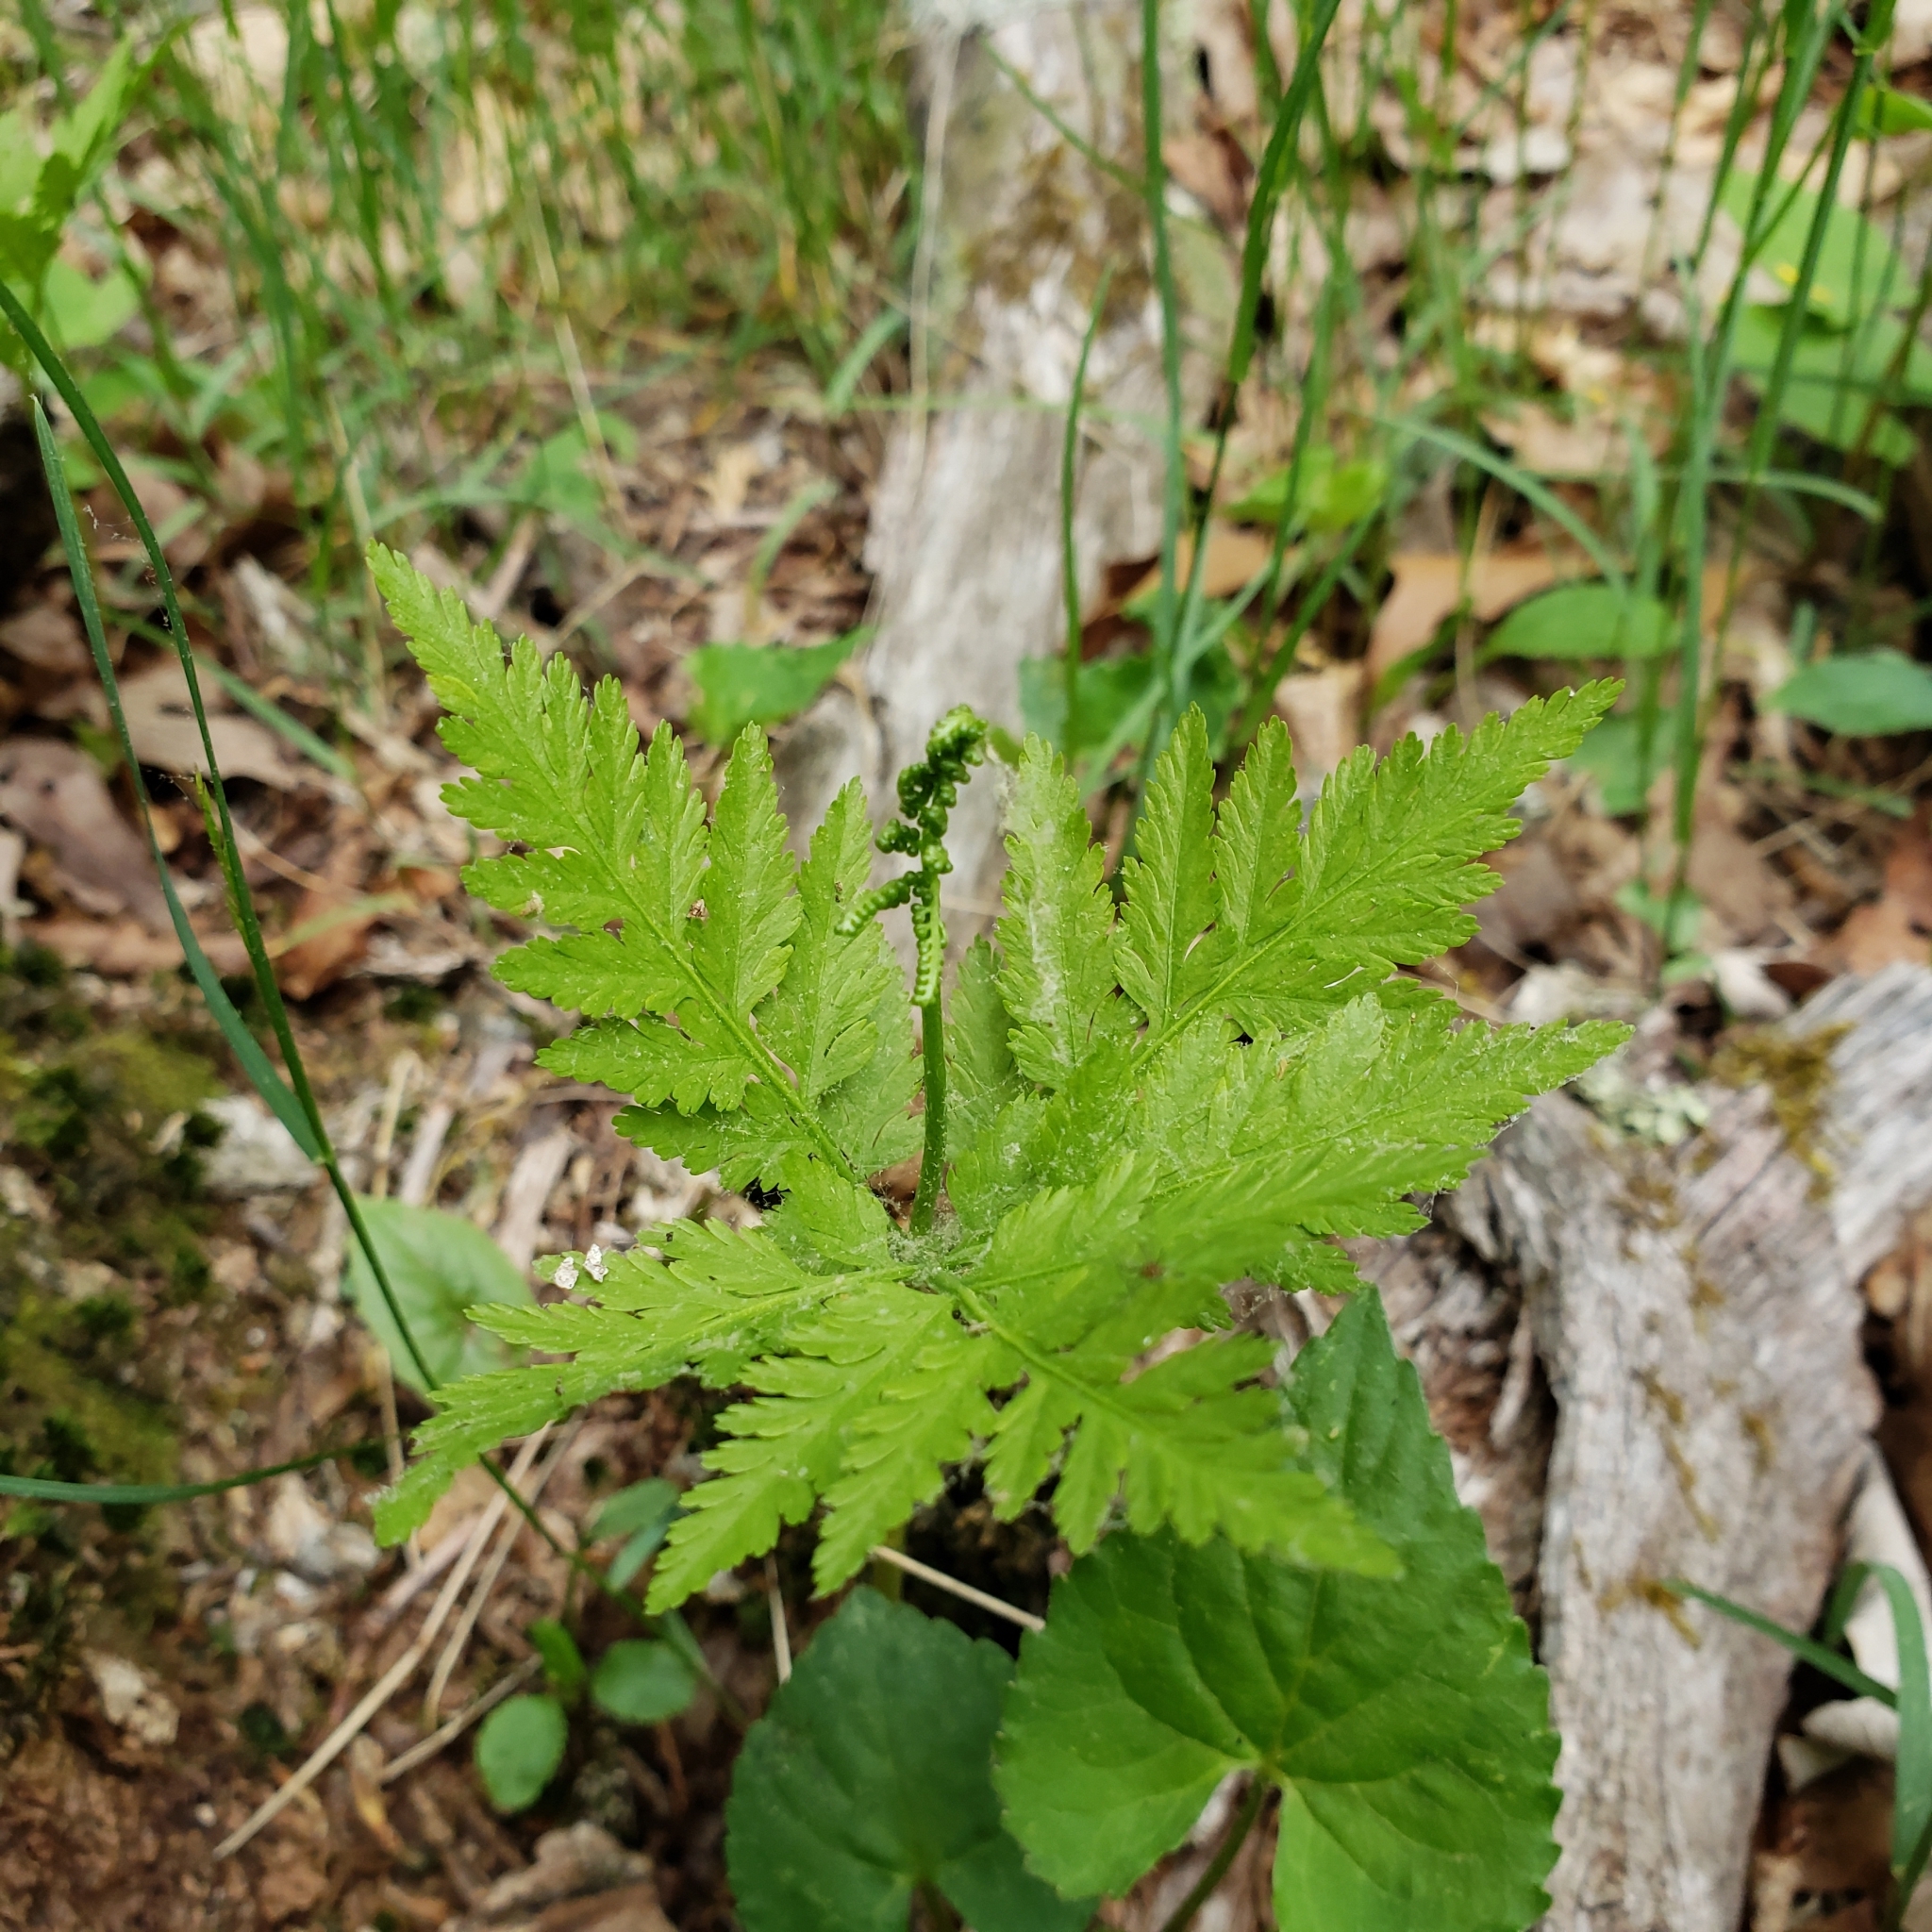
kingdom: Plantae
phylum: Tracheophyta
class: Polypodiopsida
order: Ophioglossales
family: Ophioglossaceae
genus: Botrypus
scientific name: Botrypus virginianus
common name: Common grapefern
